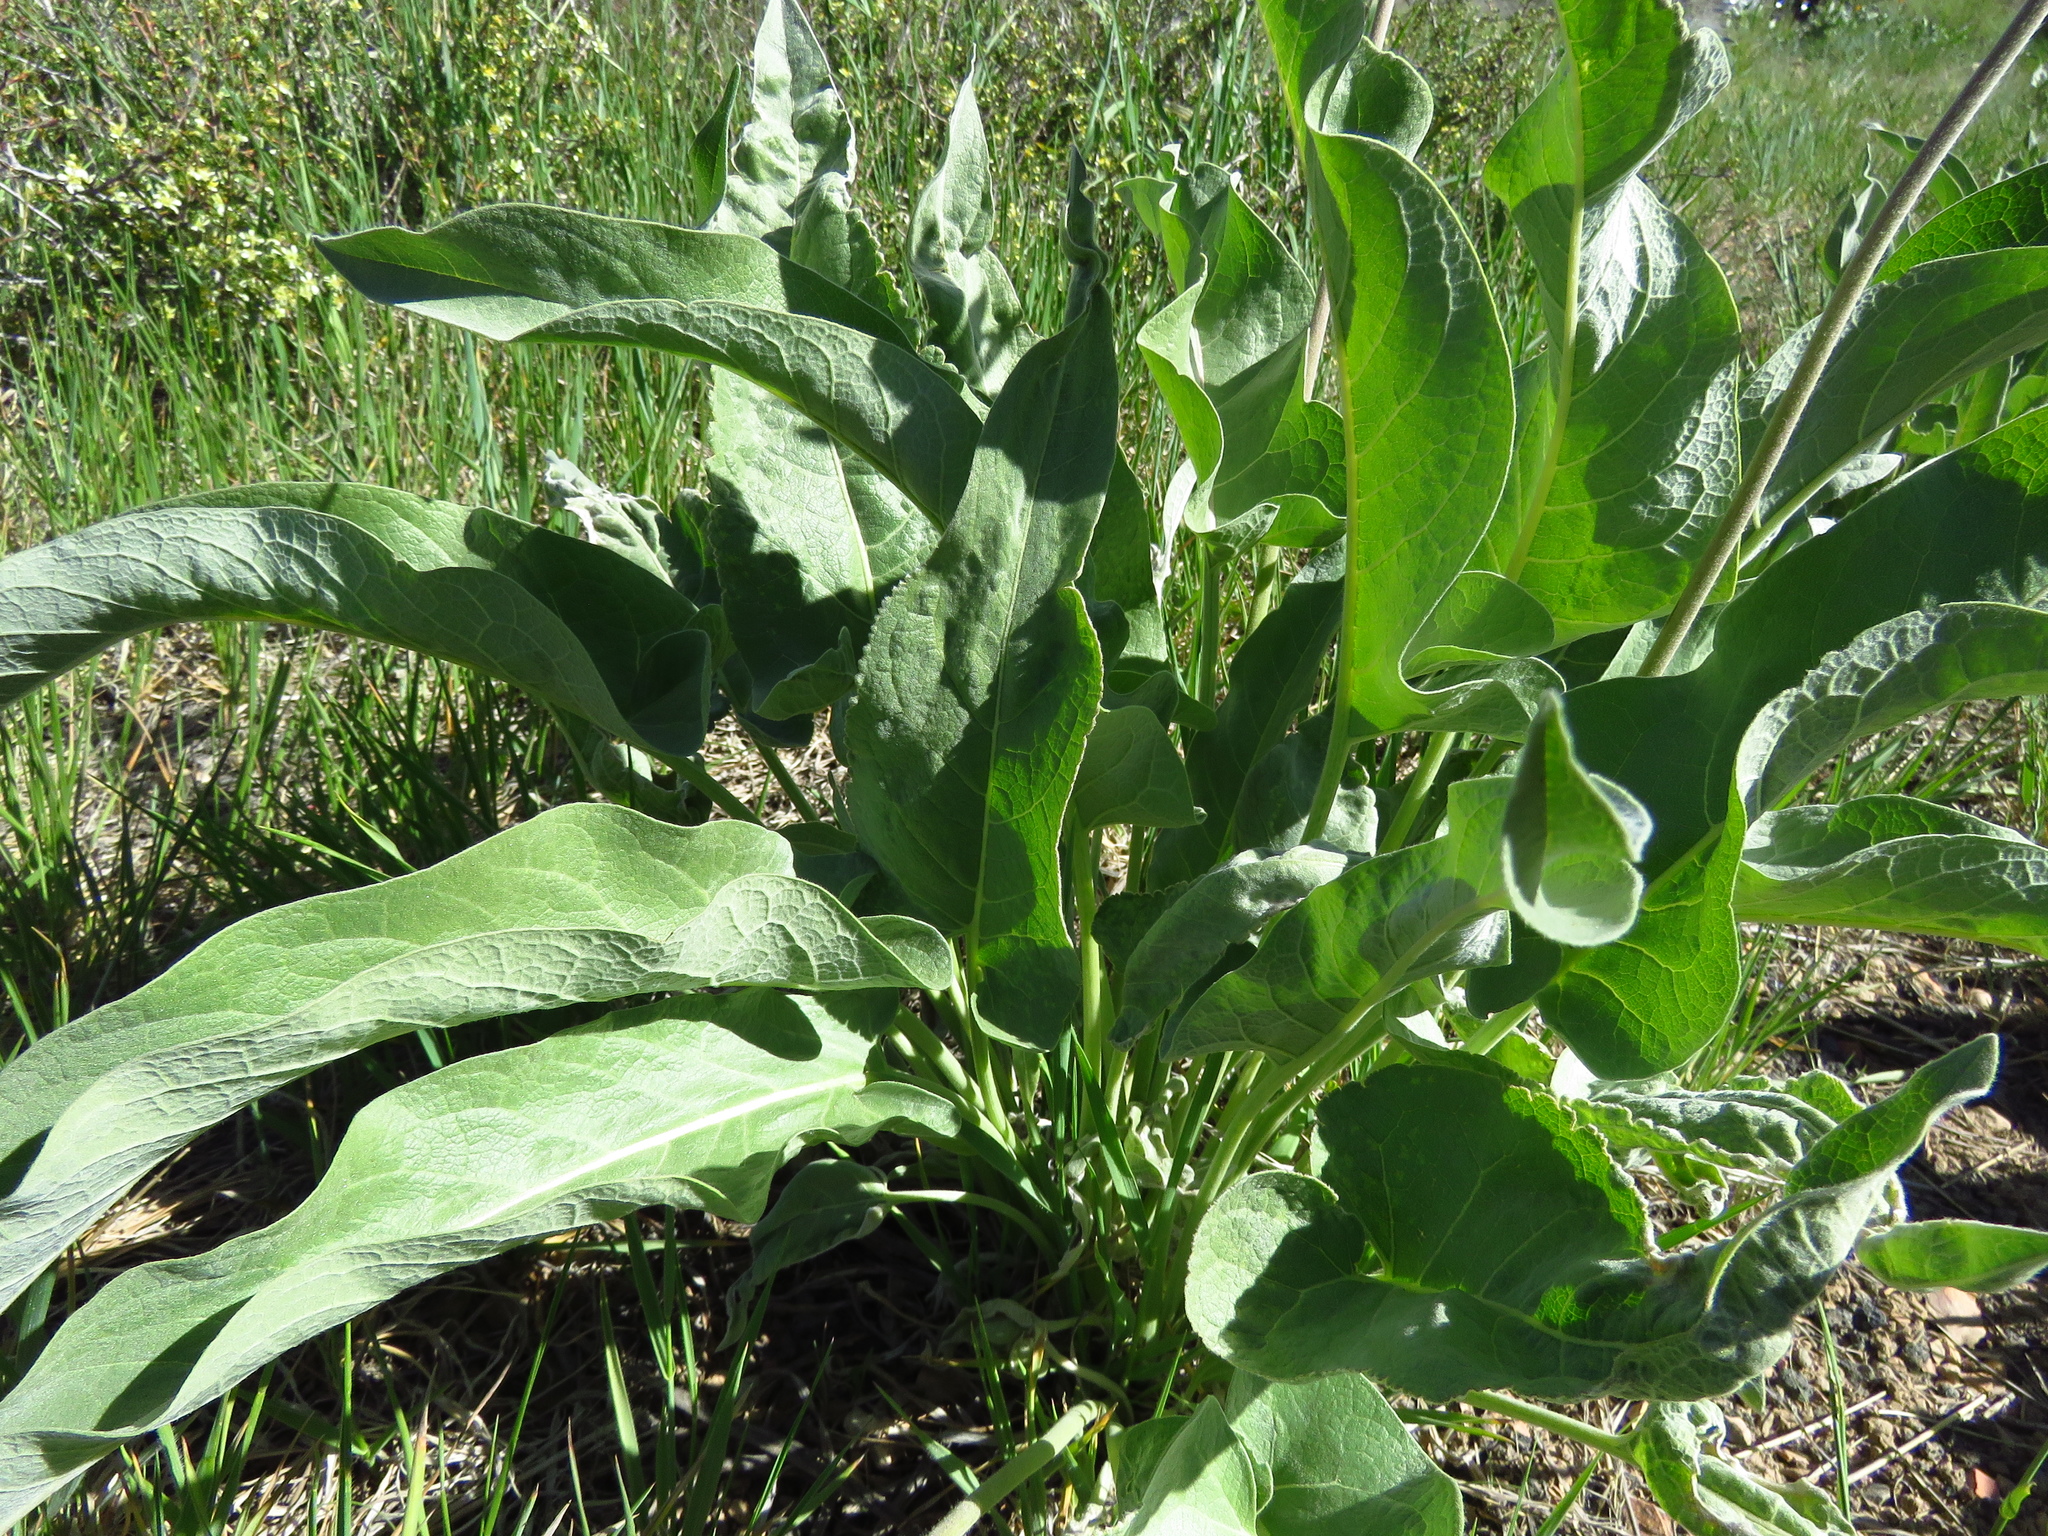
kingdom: Plantae
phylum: Tracheophyta
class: Magnoliopsida
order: Asterales
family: Asteraceae
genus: Wyethia
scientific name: Wyethia sagittata
